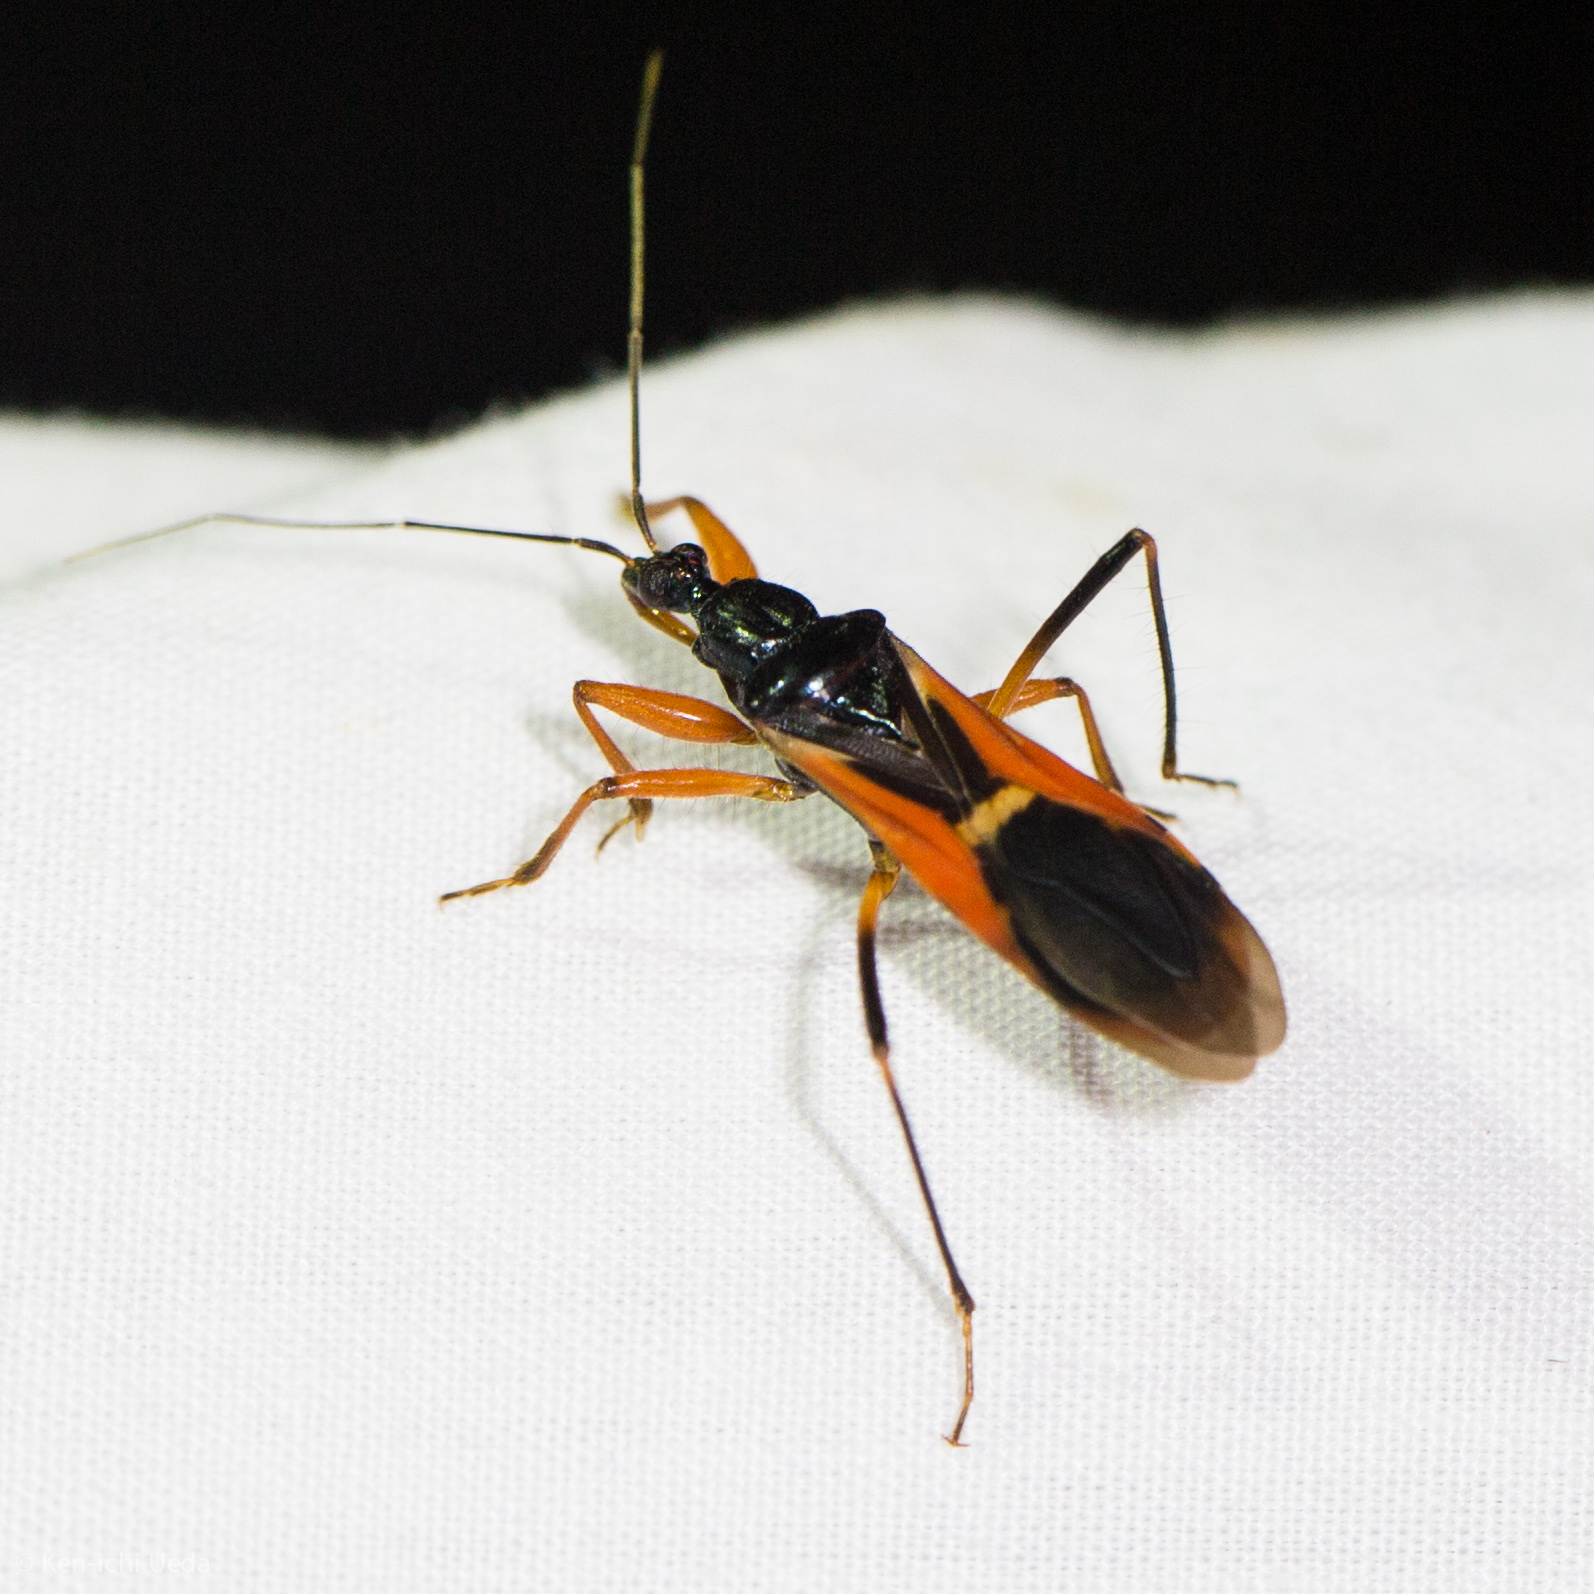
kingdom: Animalia
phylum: Arthropoda
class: Insecta
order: Hemiptera
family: Reduviidae
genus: Ectomocoris
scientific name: Ectomocoris ornatus
